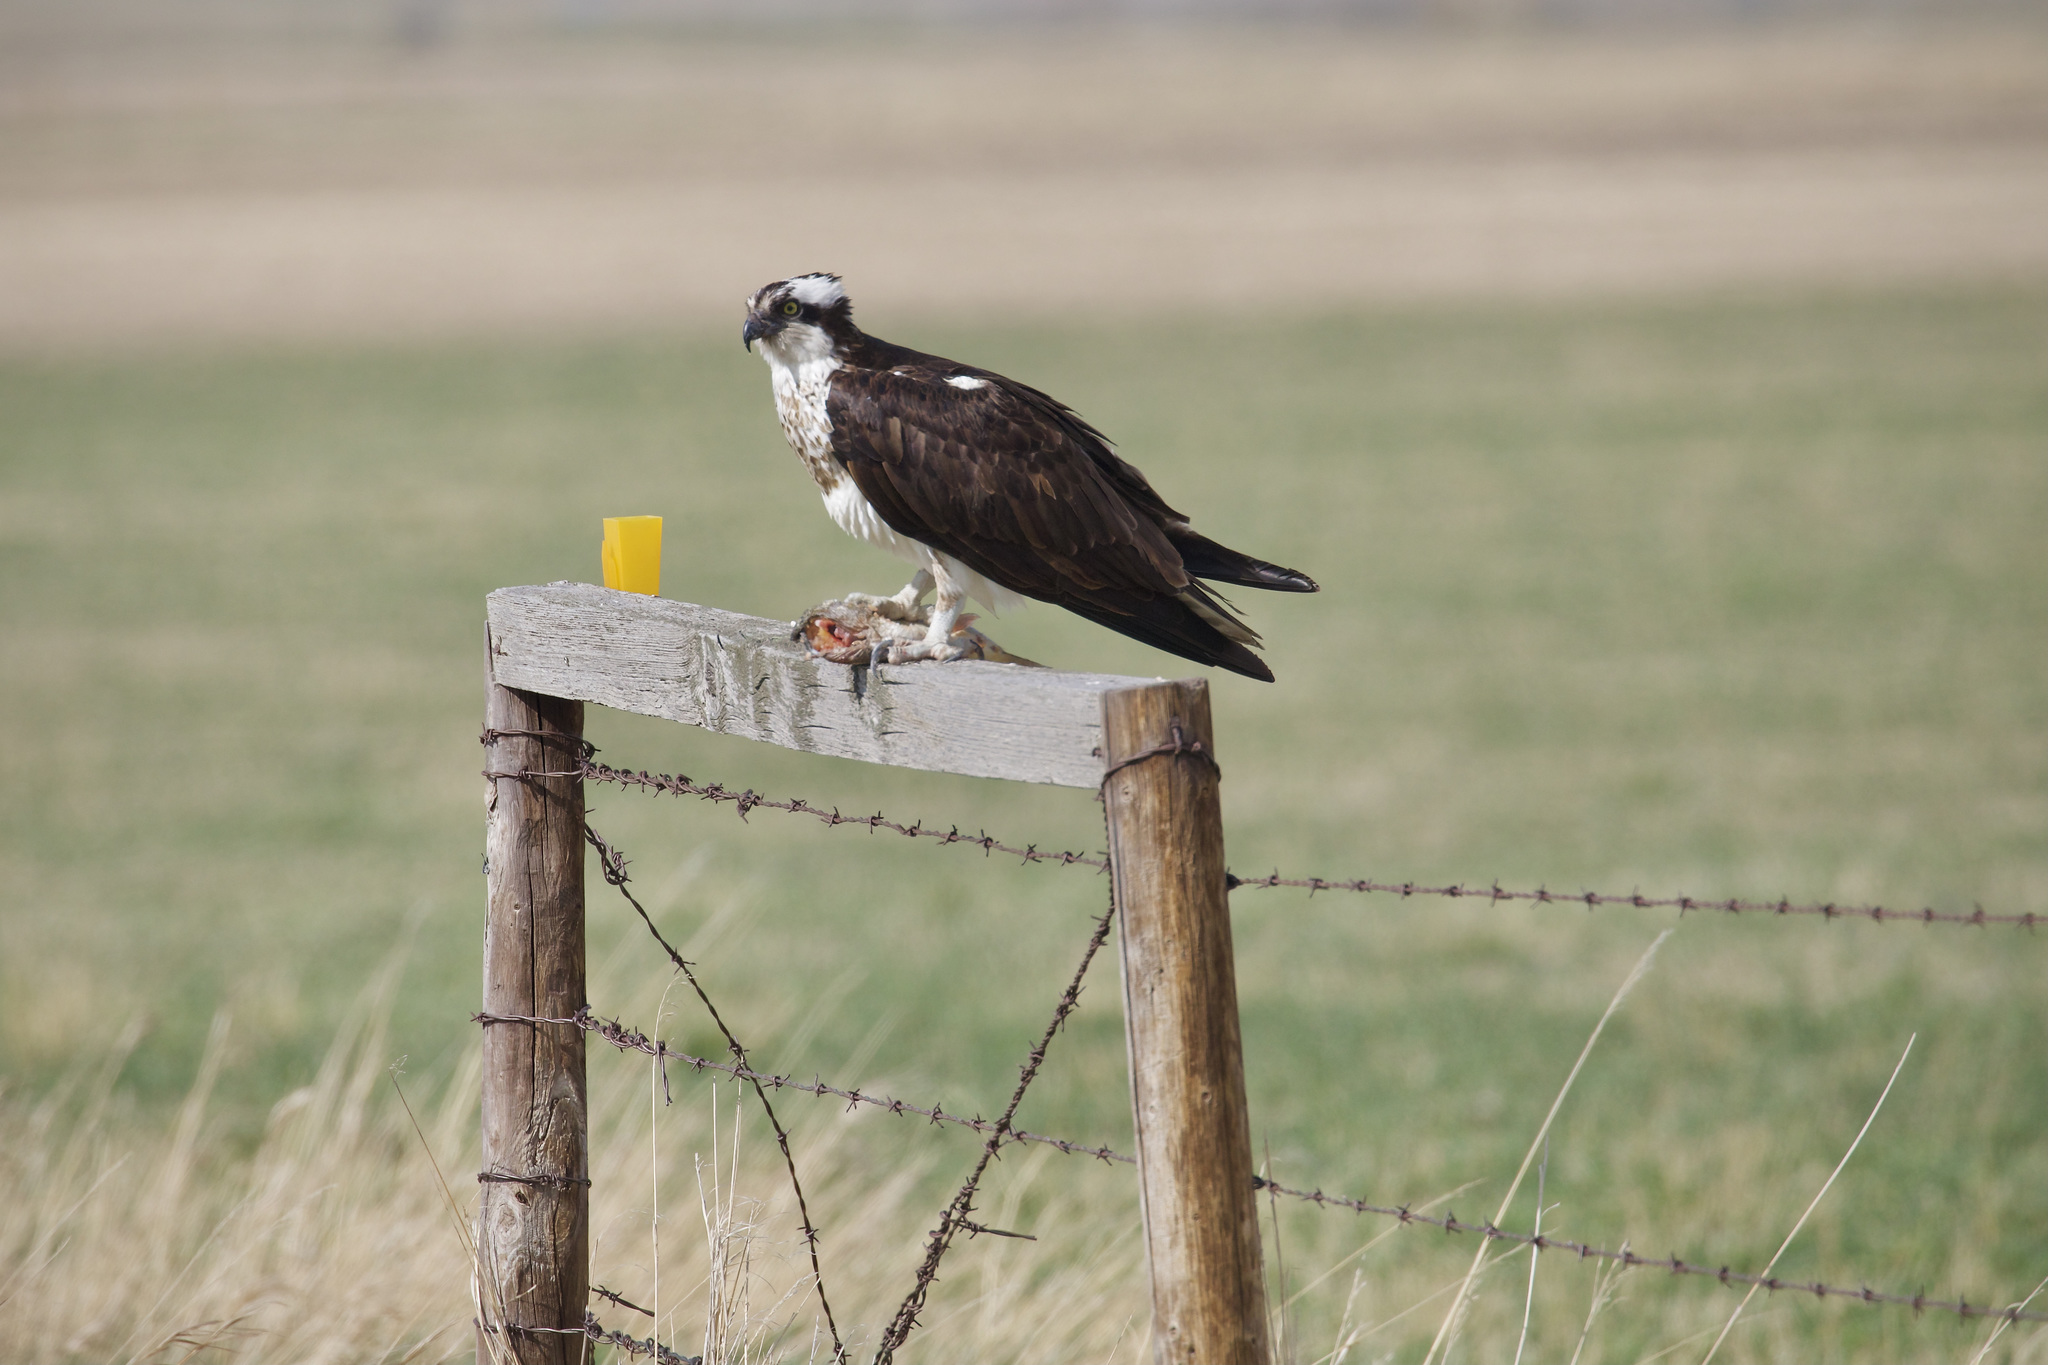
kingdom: Animalia
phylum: Chordata
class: Aves
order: Accipitriformes
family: Pandionidae
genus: Pandion
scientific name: Pandion haliaetus
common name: Osprey
